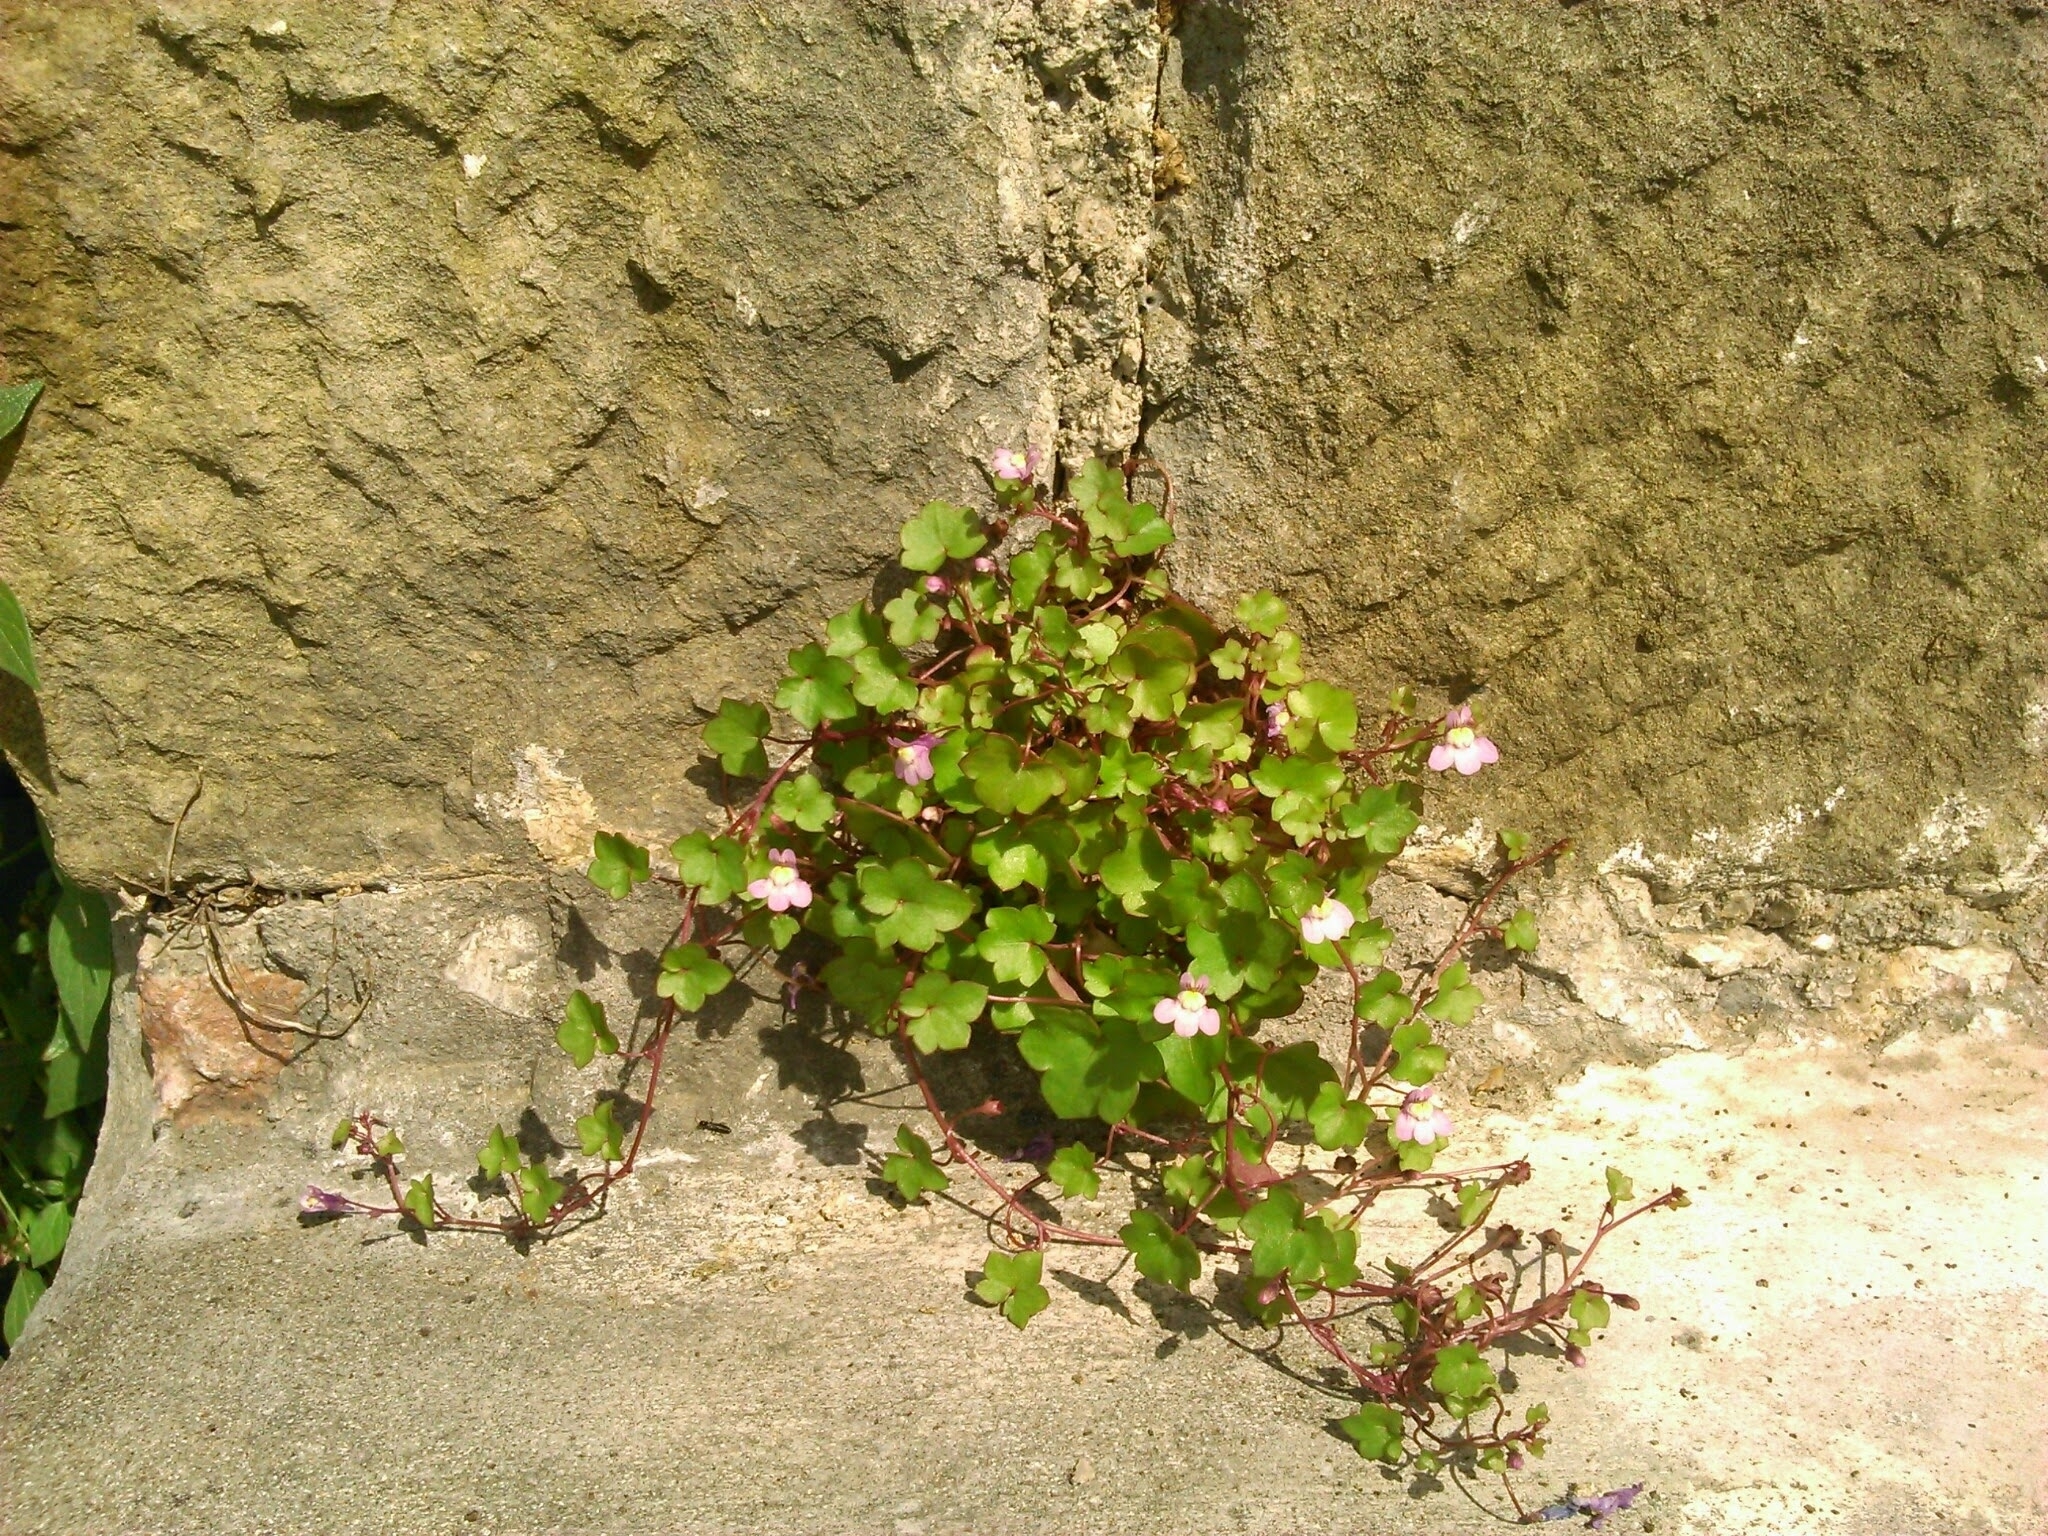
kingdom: Plantae
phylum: Tracheophyta
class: Magnoliopsida
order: Lamiales
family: Plantaginaceae
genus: Cymbalaria
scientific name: Cymbalaria muralis
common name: Ivy-leaved toadflax
